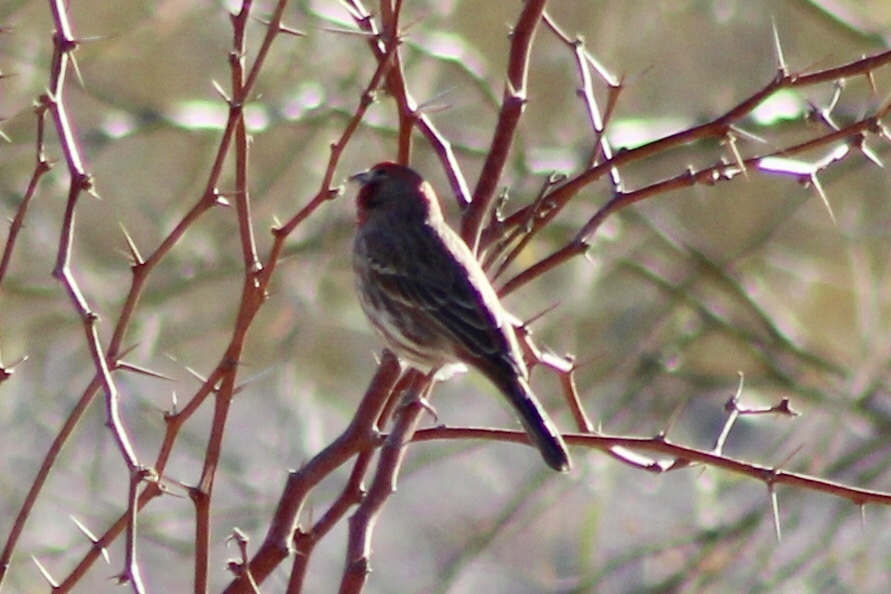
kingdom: Animalia
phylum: Chordata
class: Aves
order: Passeriformes
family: Fringillidae
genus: Haemorhous
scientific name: Haemorhous mexicanus
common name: House finch
